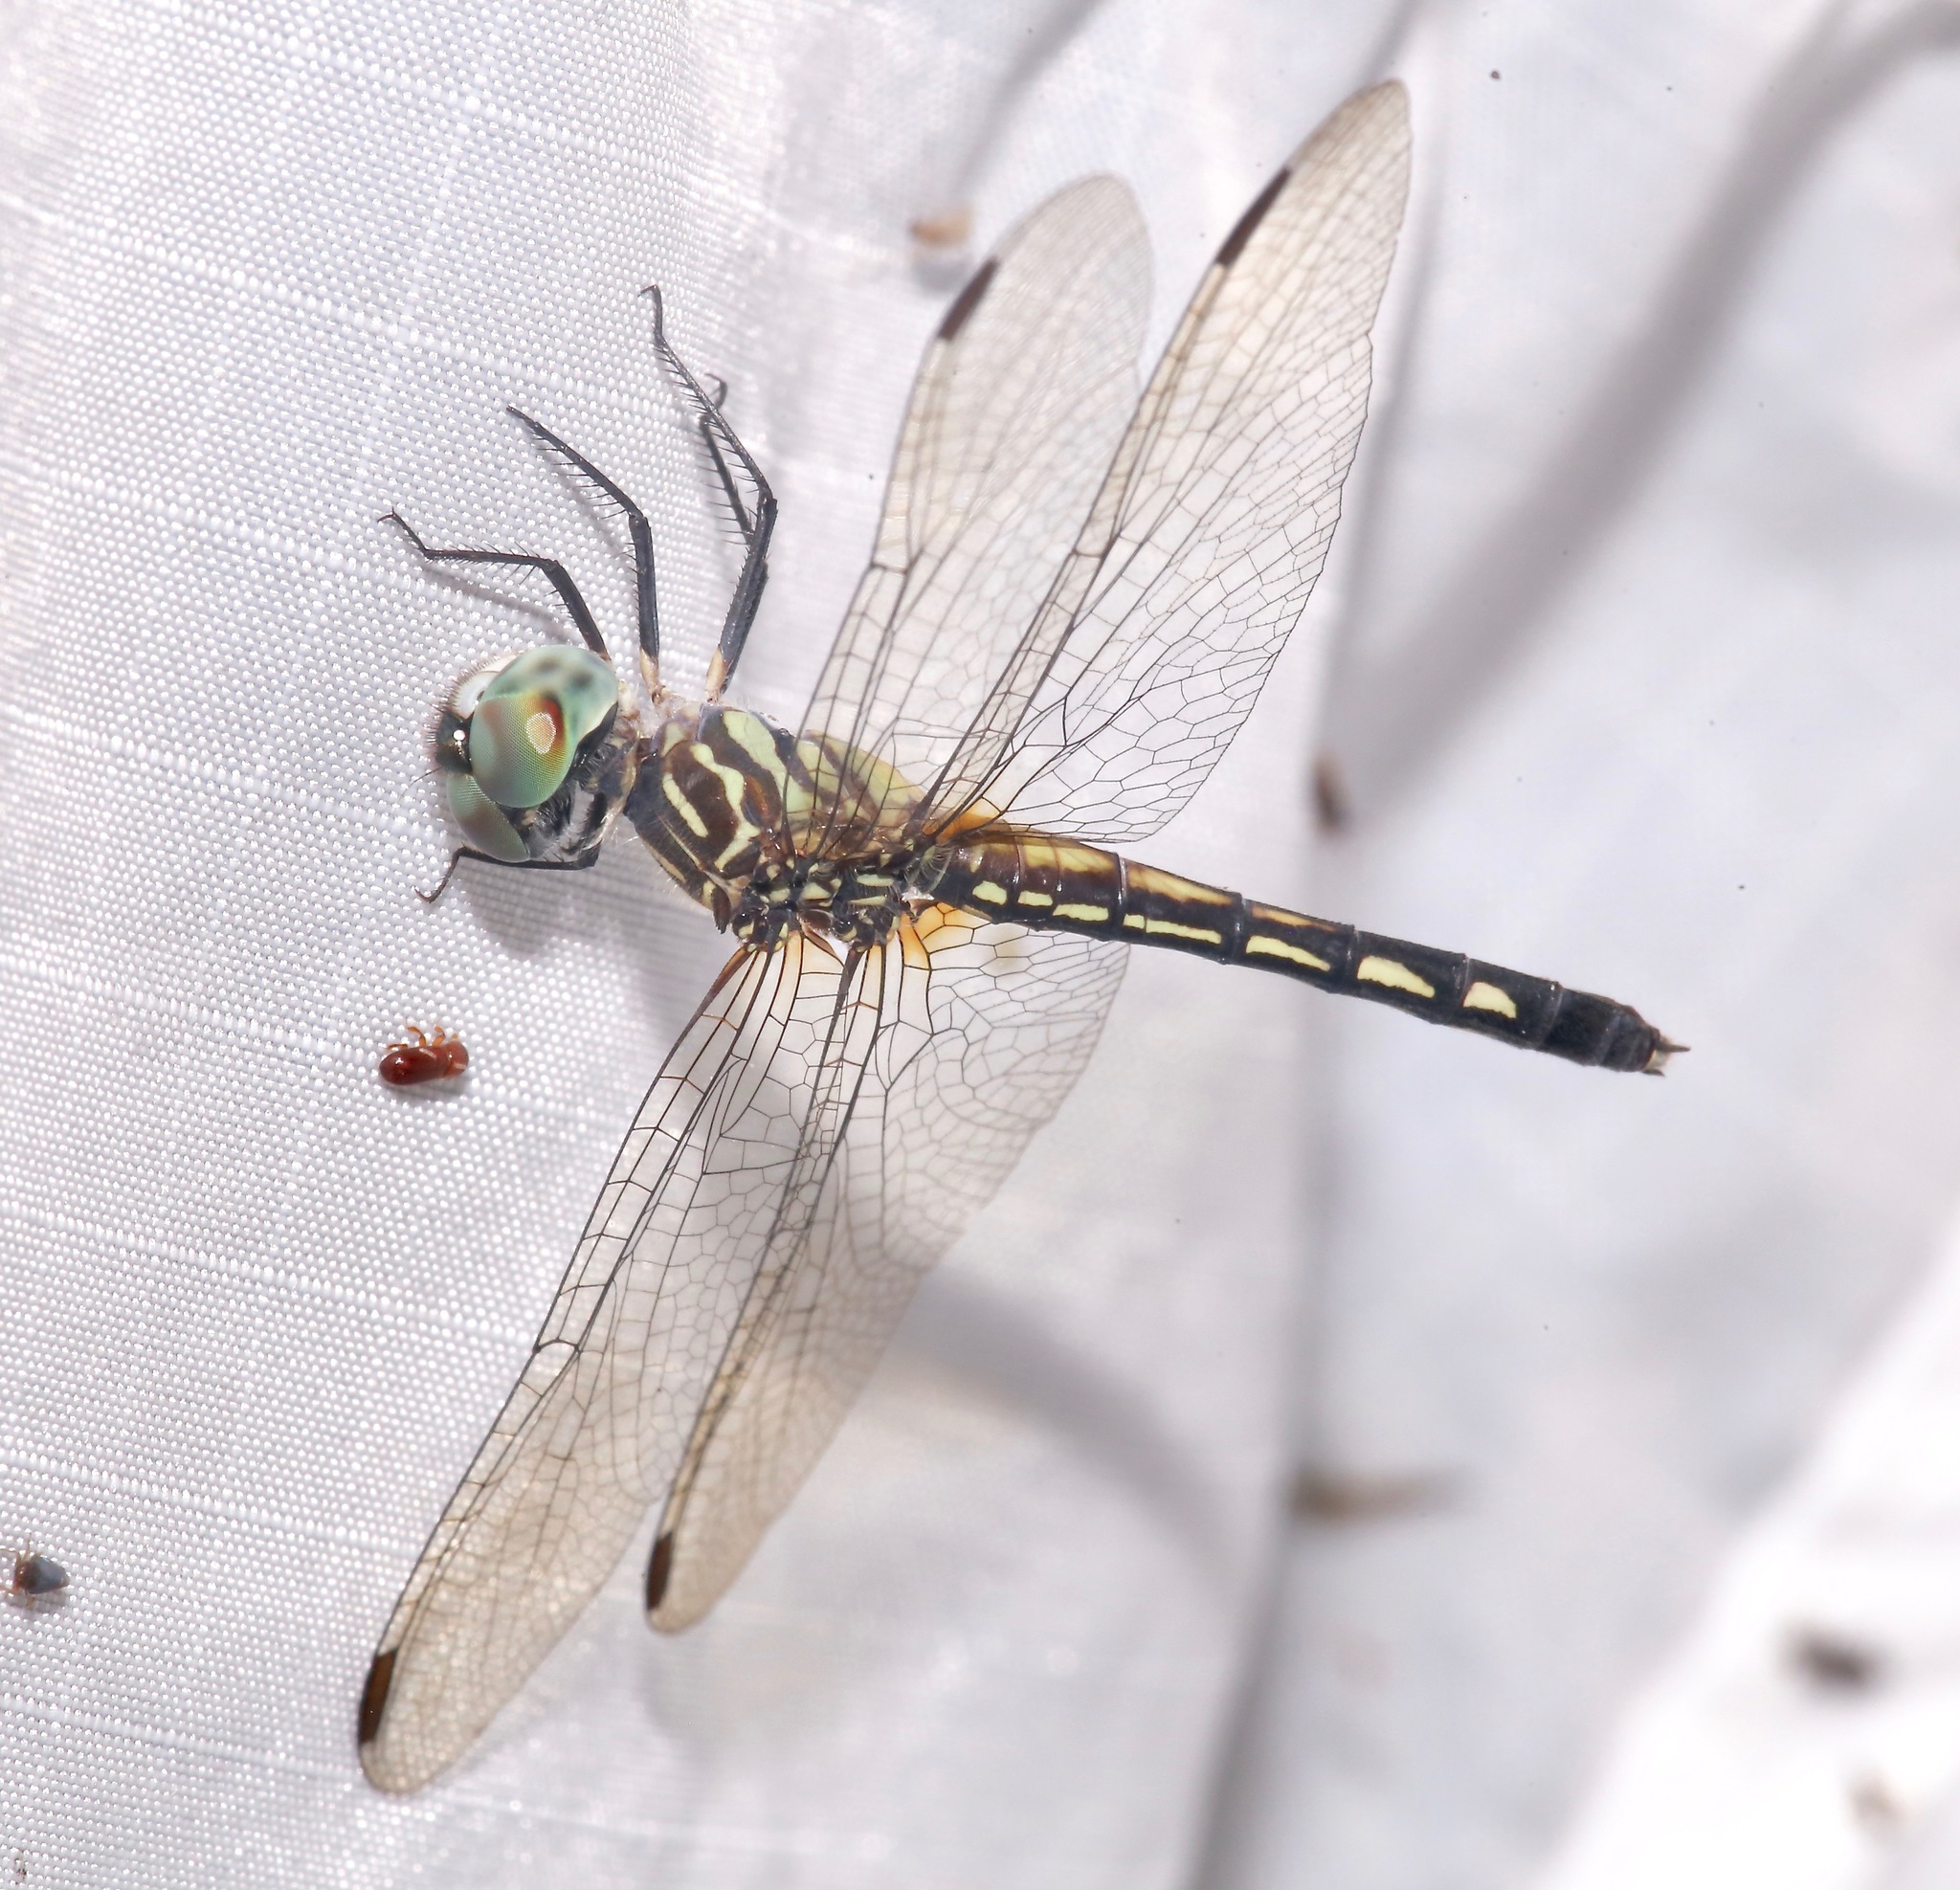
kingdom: Animalia
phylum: Arthropoda
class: Insecta
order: Odonata
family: Libellulidae
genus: Pachydiplax
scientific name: Pachydiplax longipennis
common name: Blue dasher
